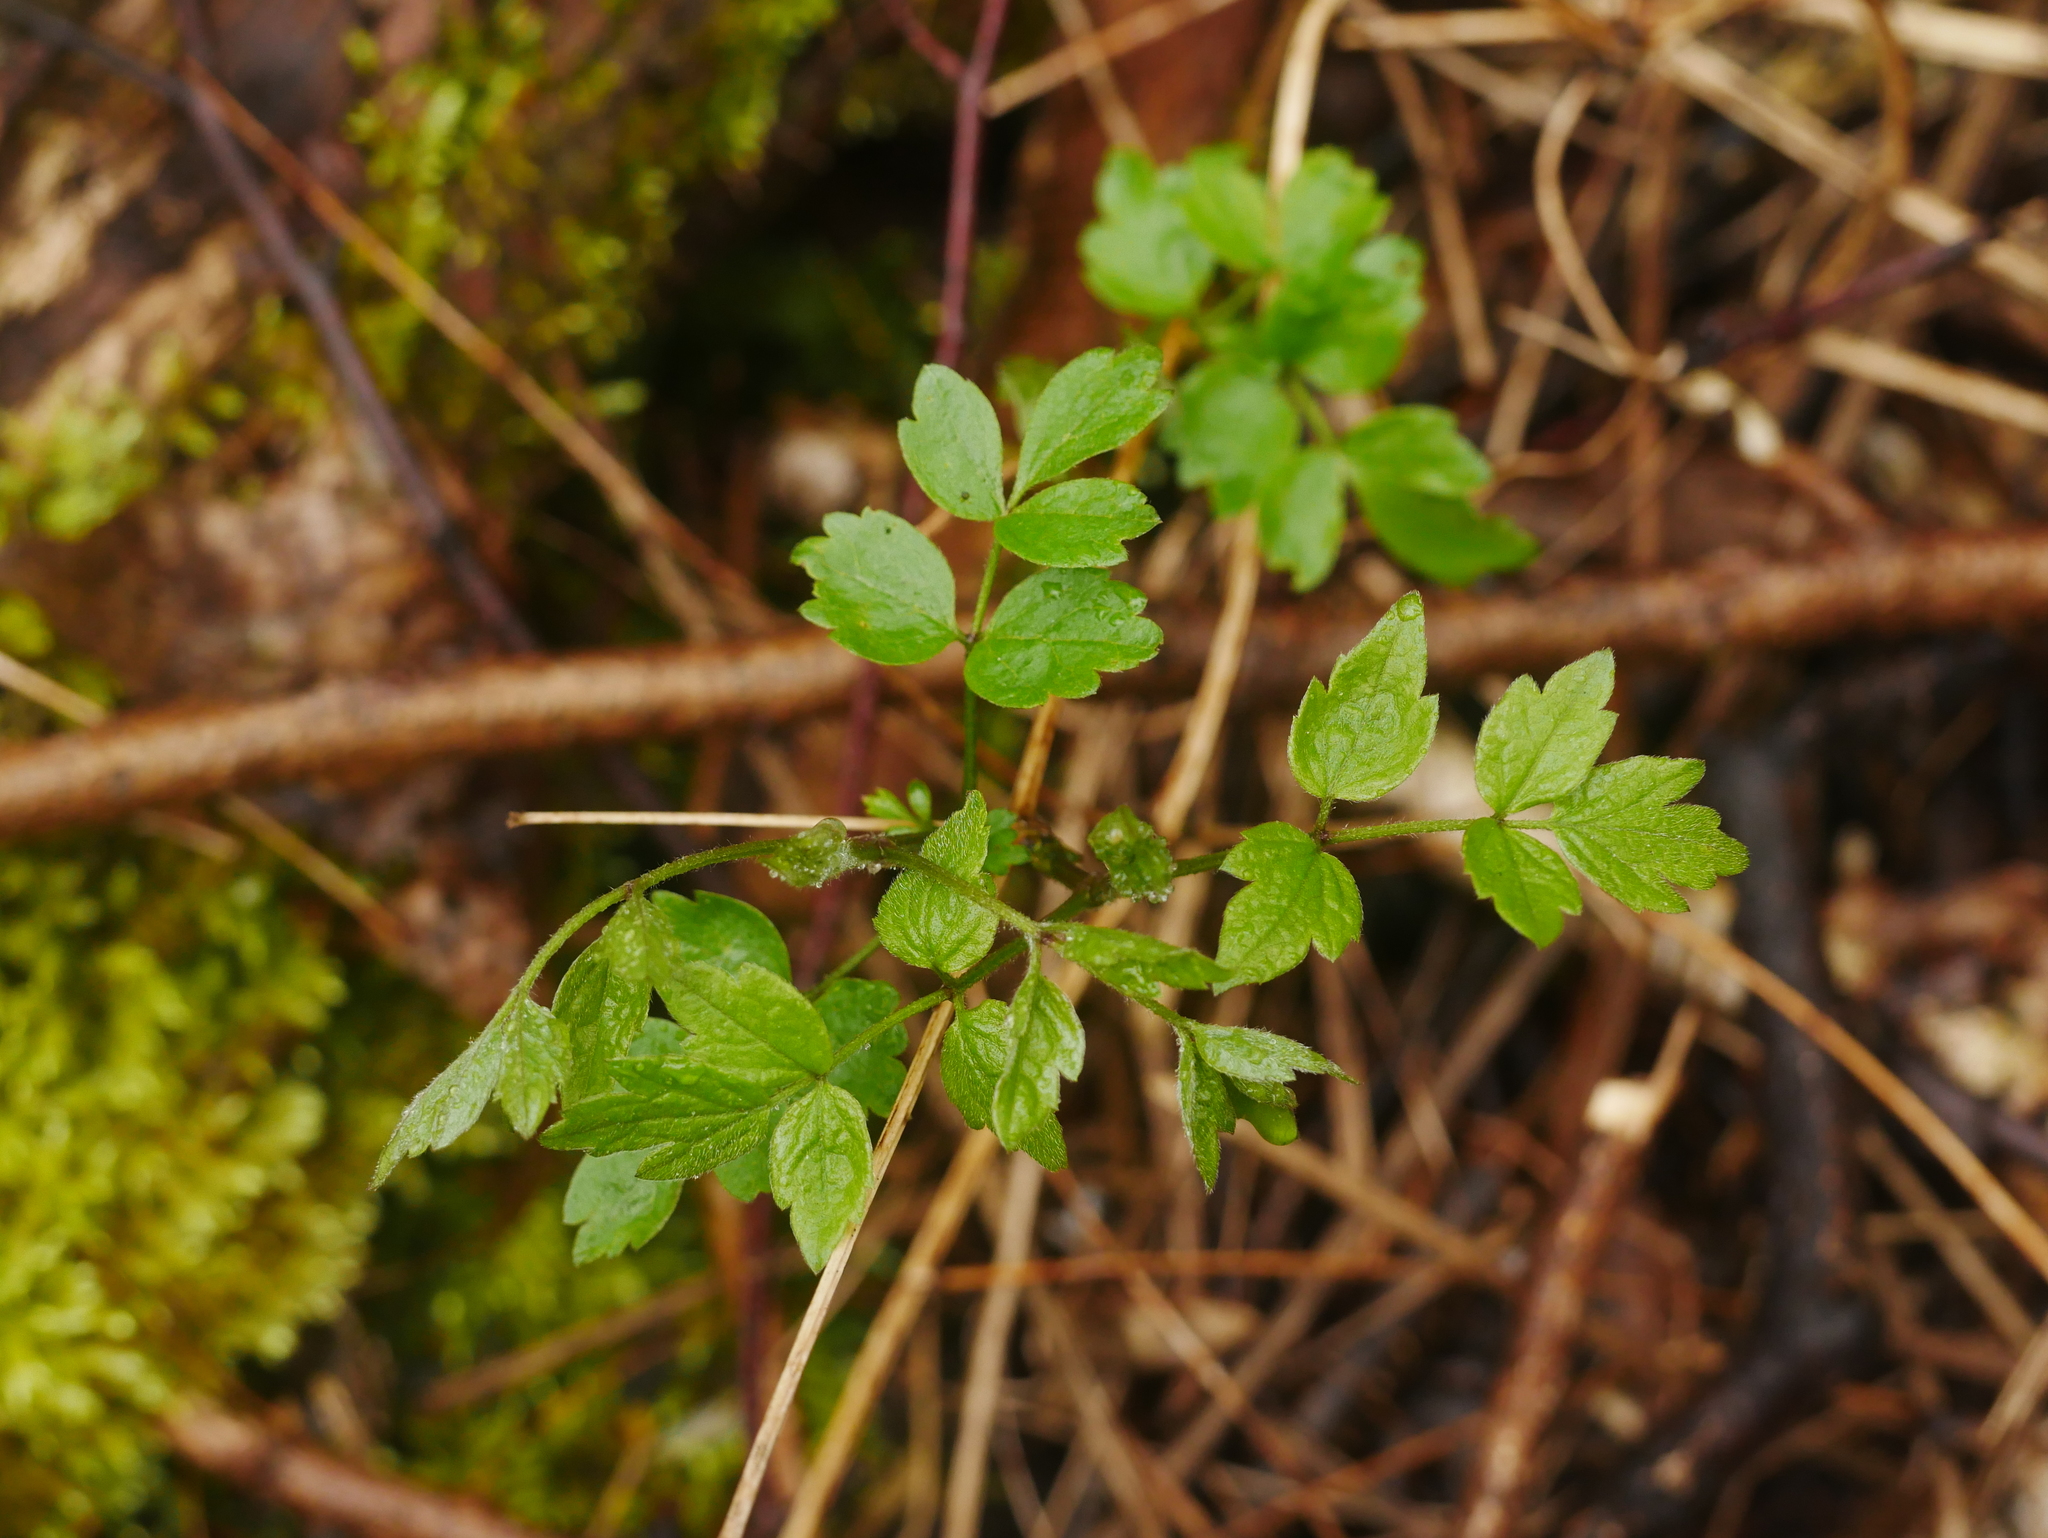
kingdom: Plantae
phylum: Tracheophyta
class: Magnoliopsida
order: Ranunculales
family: Ranunculaceae
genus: Clematis
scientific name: Clematis vitalba
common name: Evergreen clematis
